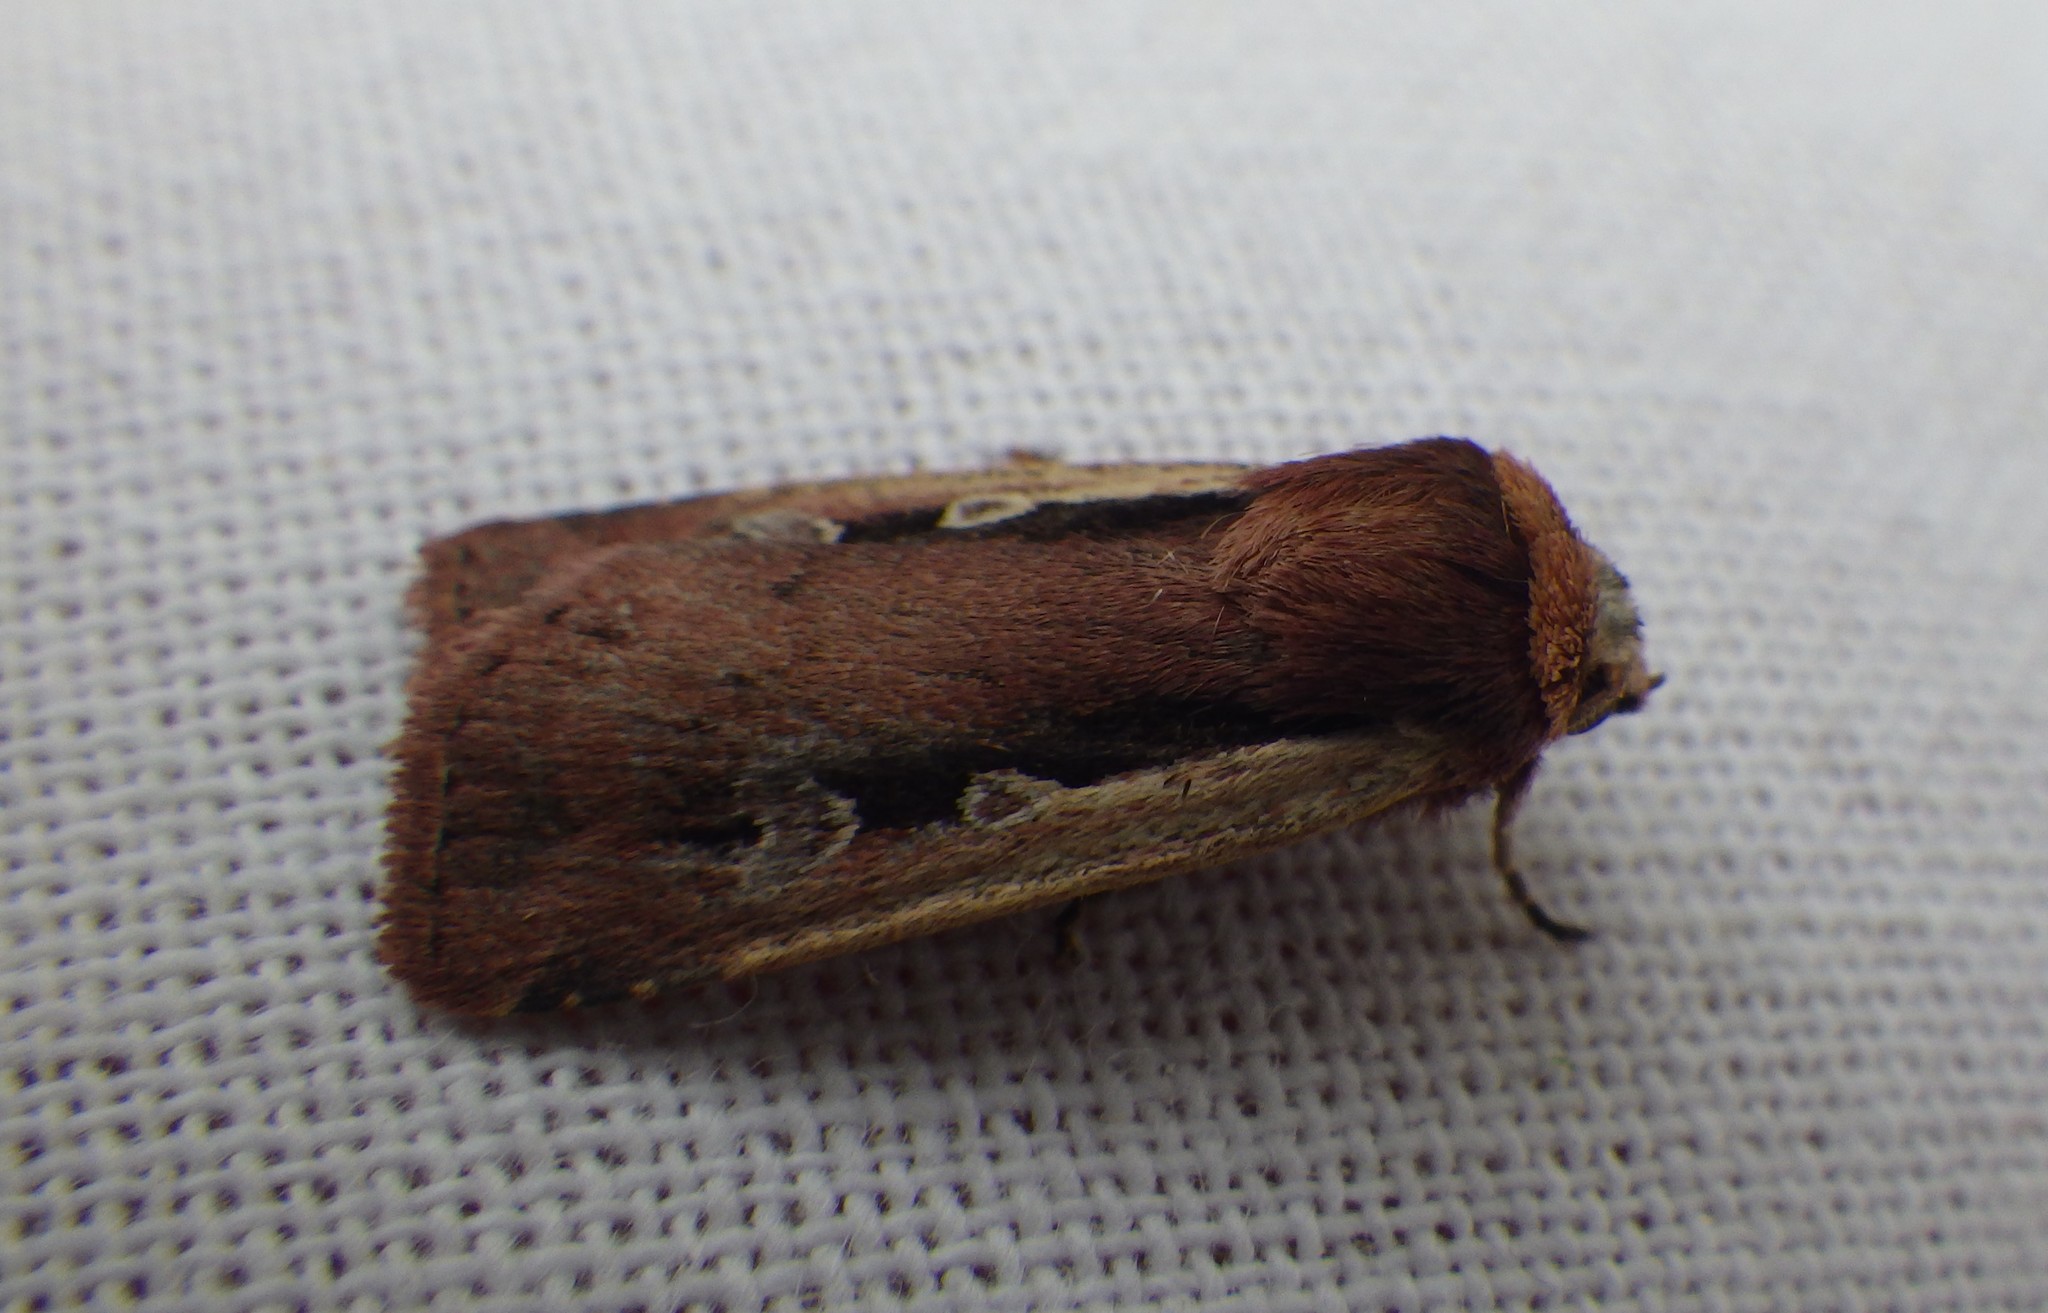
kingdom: Animalia
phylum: Arthropoda
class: Insecta
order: Lepidoptera
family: Noctuidae
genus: Ochropleura
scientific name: Ochropleura plecta
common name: Flame shoulder
